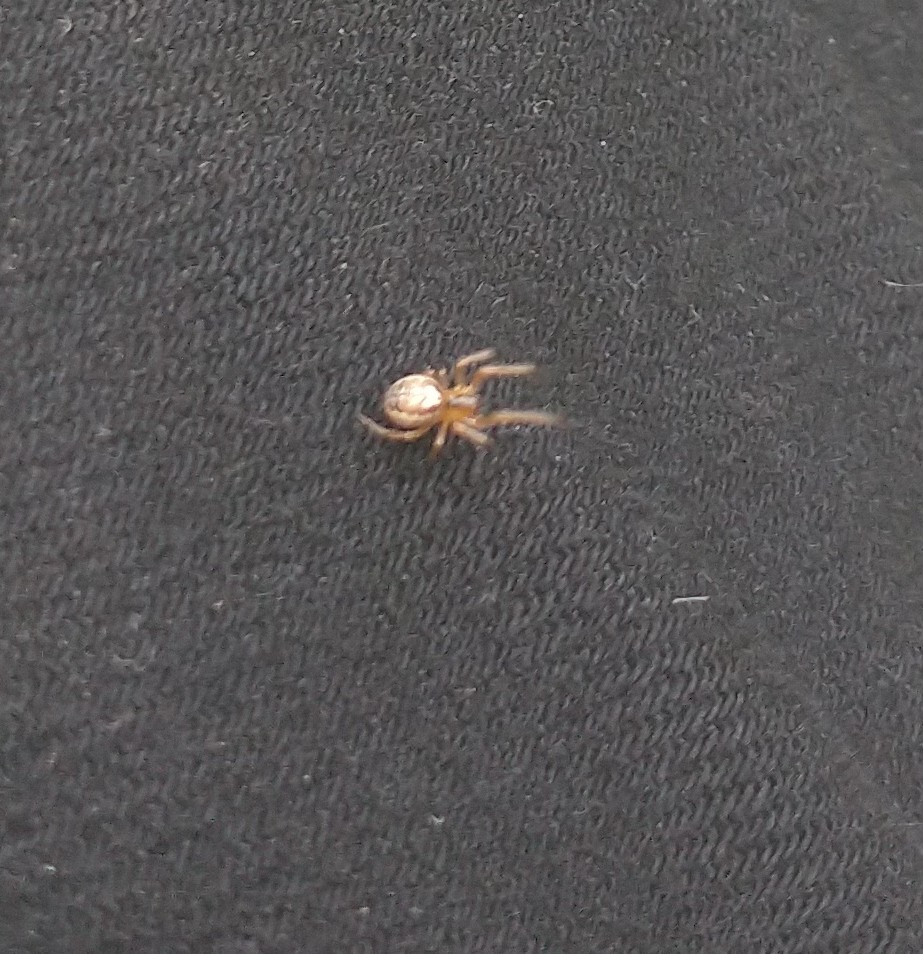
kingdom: Animalia
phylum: Arthropoda
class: Arachnida
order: Araneae
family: Araneidae
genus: Zygiella
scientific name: Zygiella x-notata
